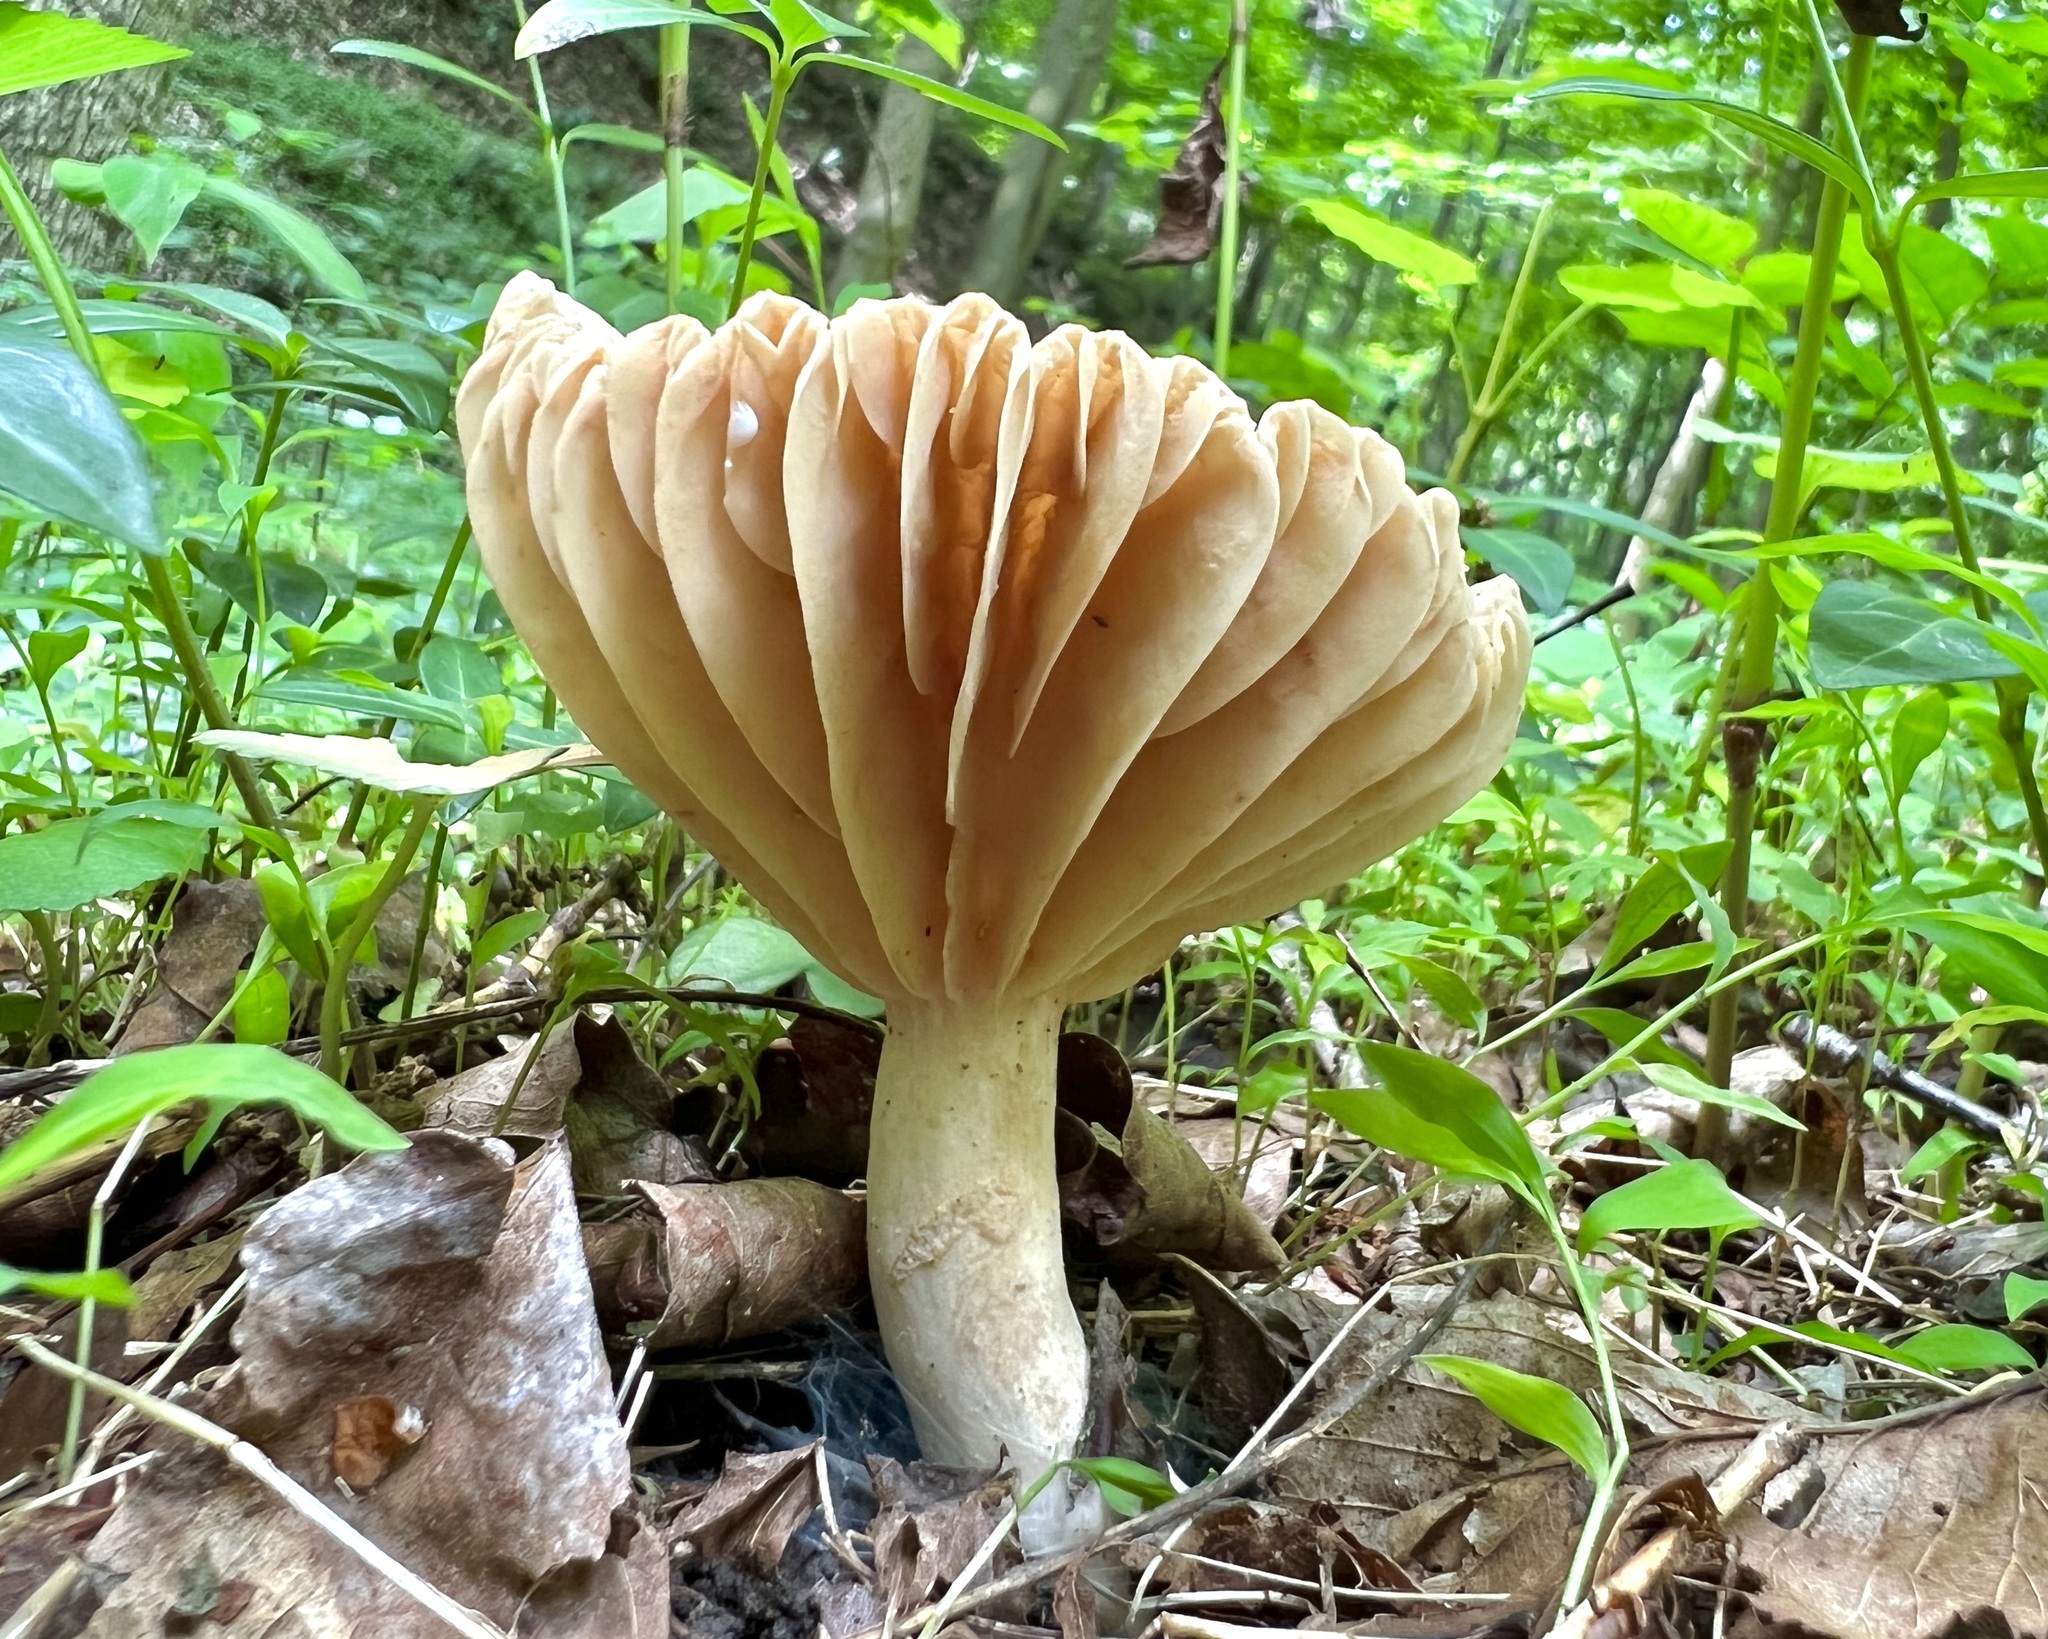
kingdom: Fungi
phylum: Basidiomycota
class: Agaricomycetes
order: Russulales
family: Russulaceae
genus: Lactarius
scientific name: Lactarius subplinthogalus
